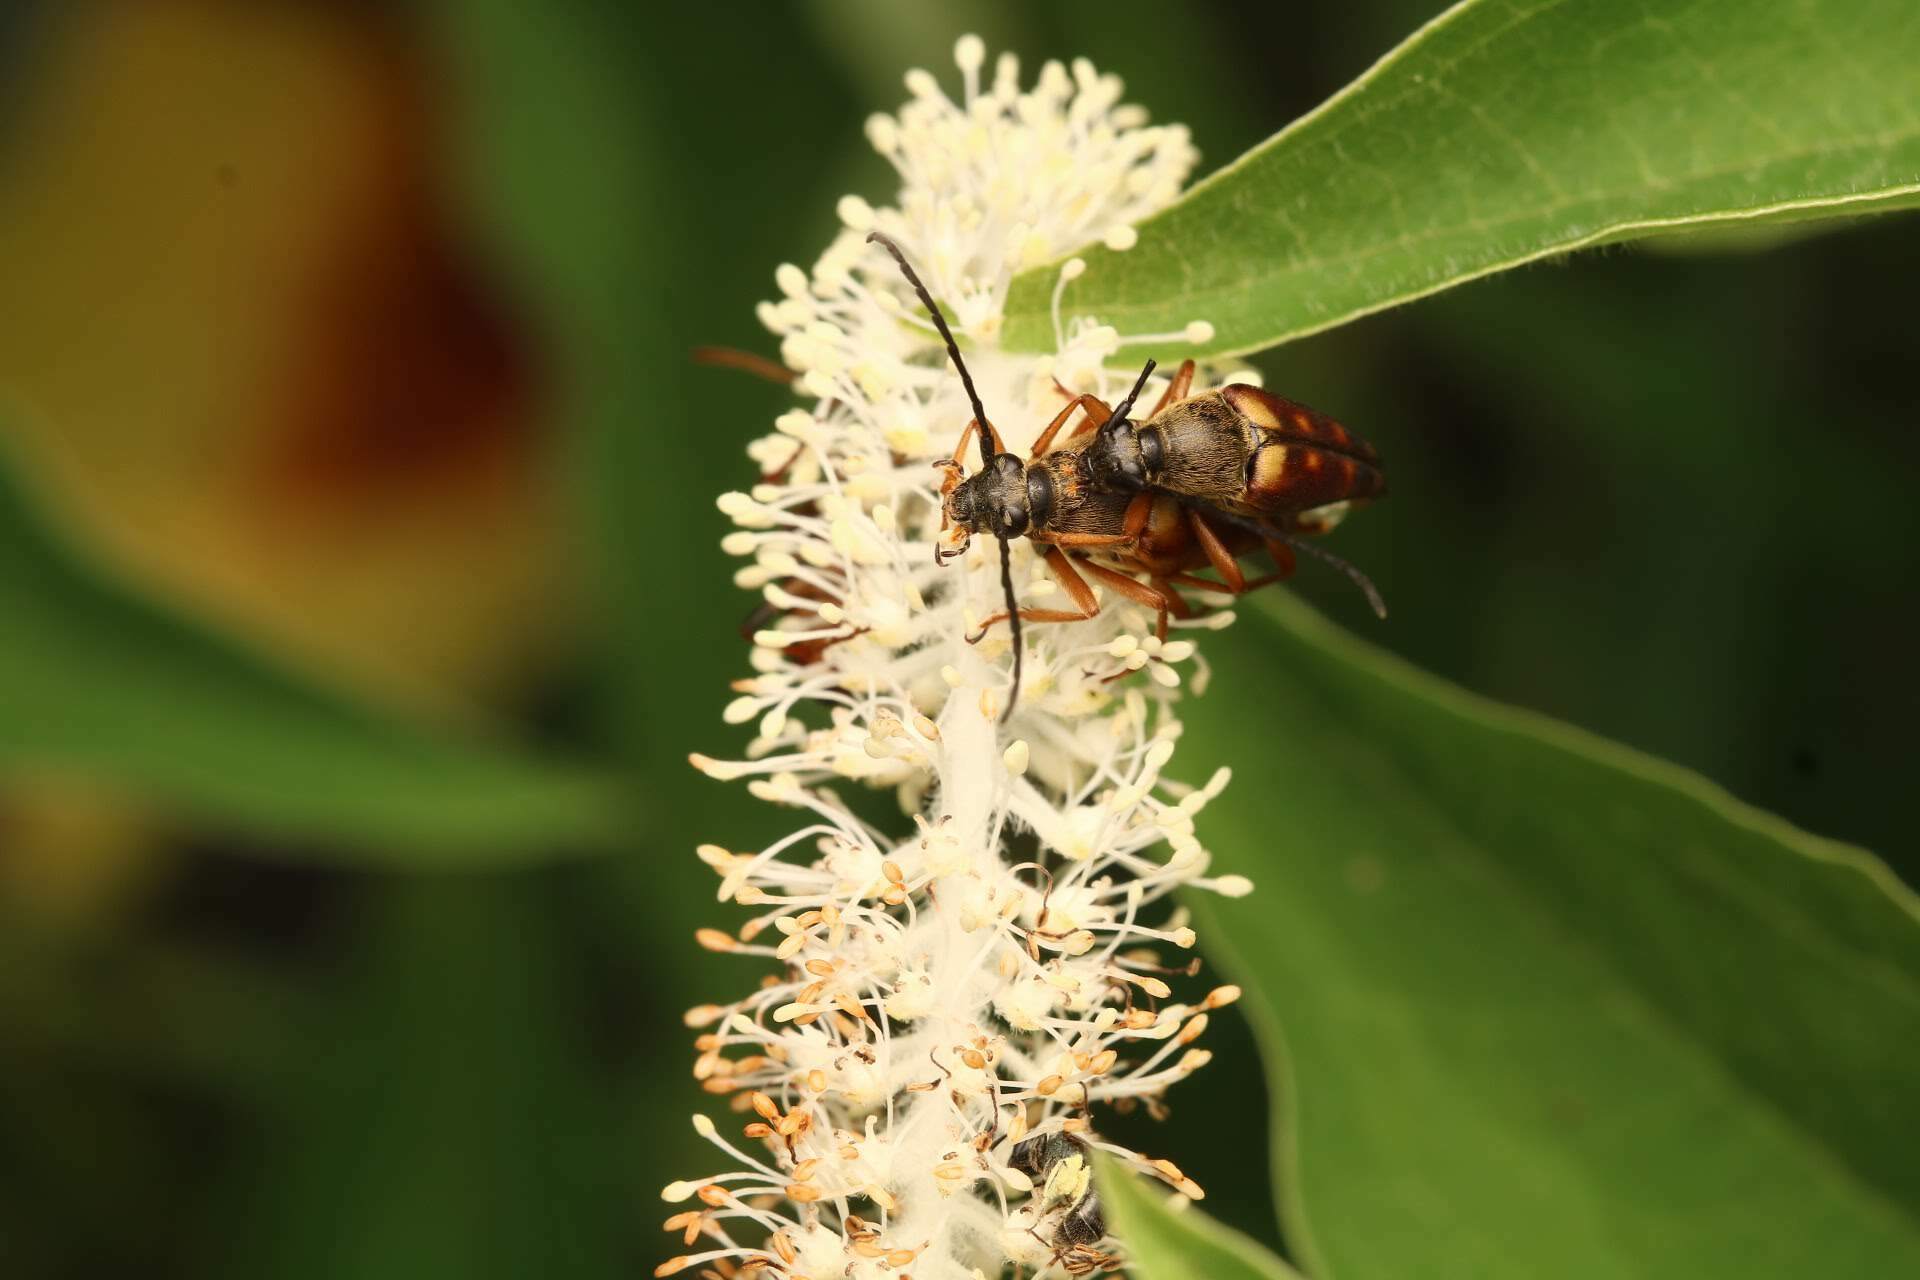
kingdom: Animalia
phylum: Arthropoda
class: Insecta
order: Coleoptera
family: Cerambycidae
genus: Typocerus
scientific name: Typocerus velutinus
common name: Banded longhorn beetle
